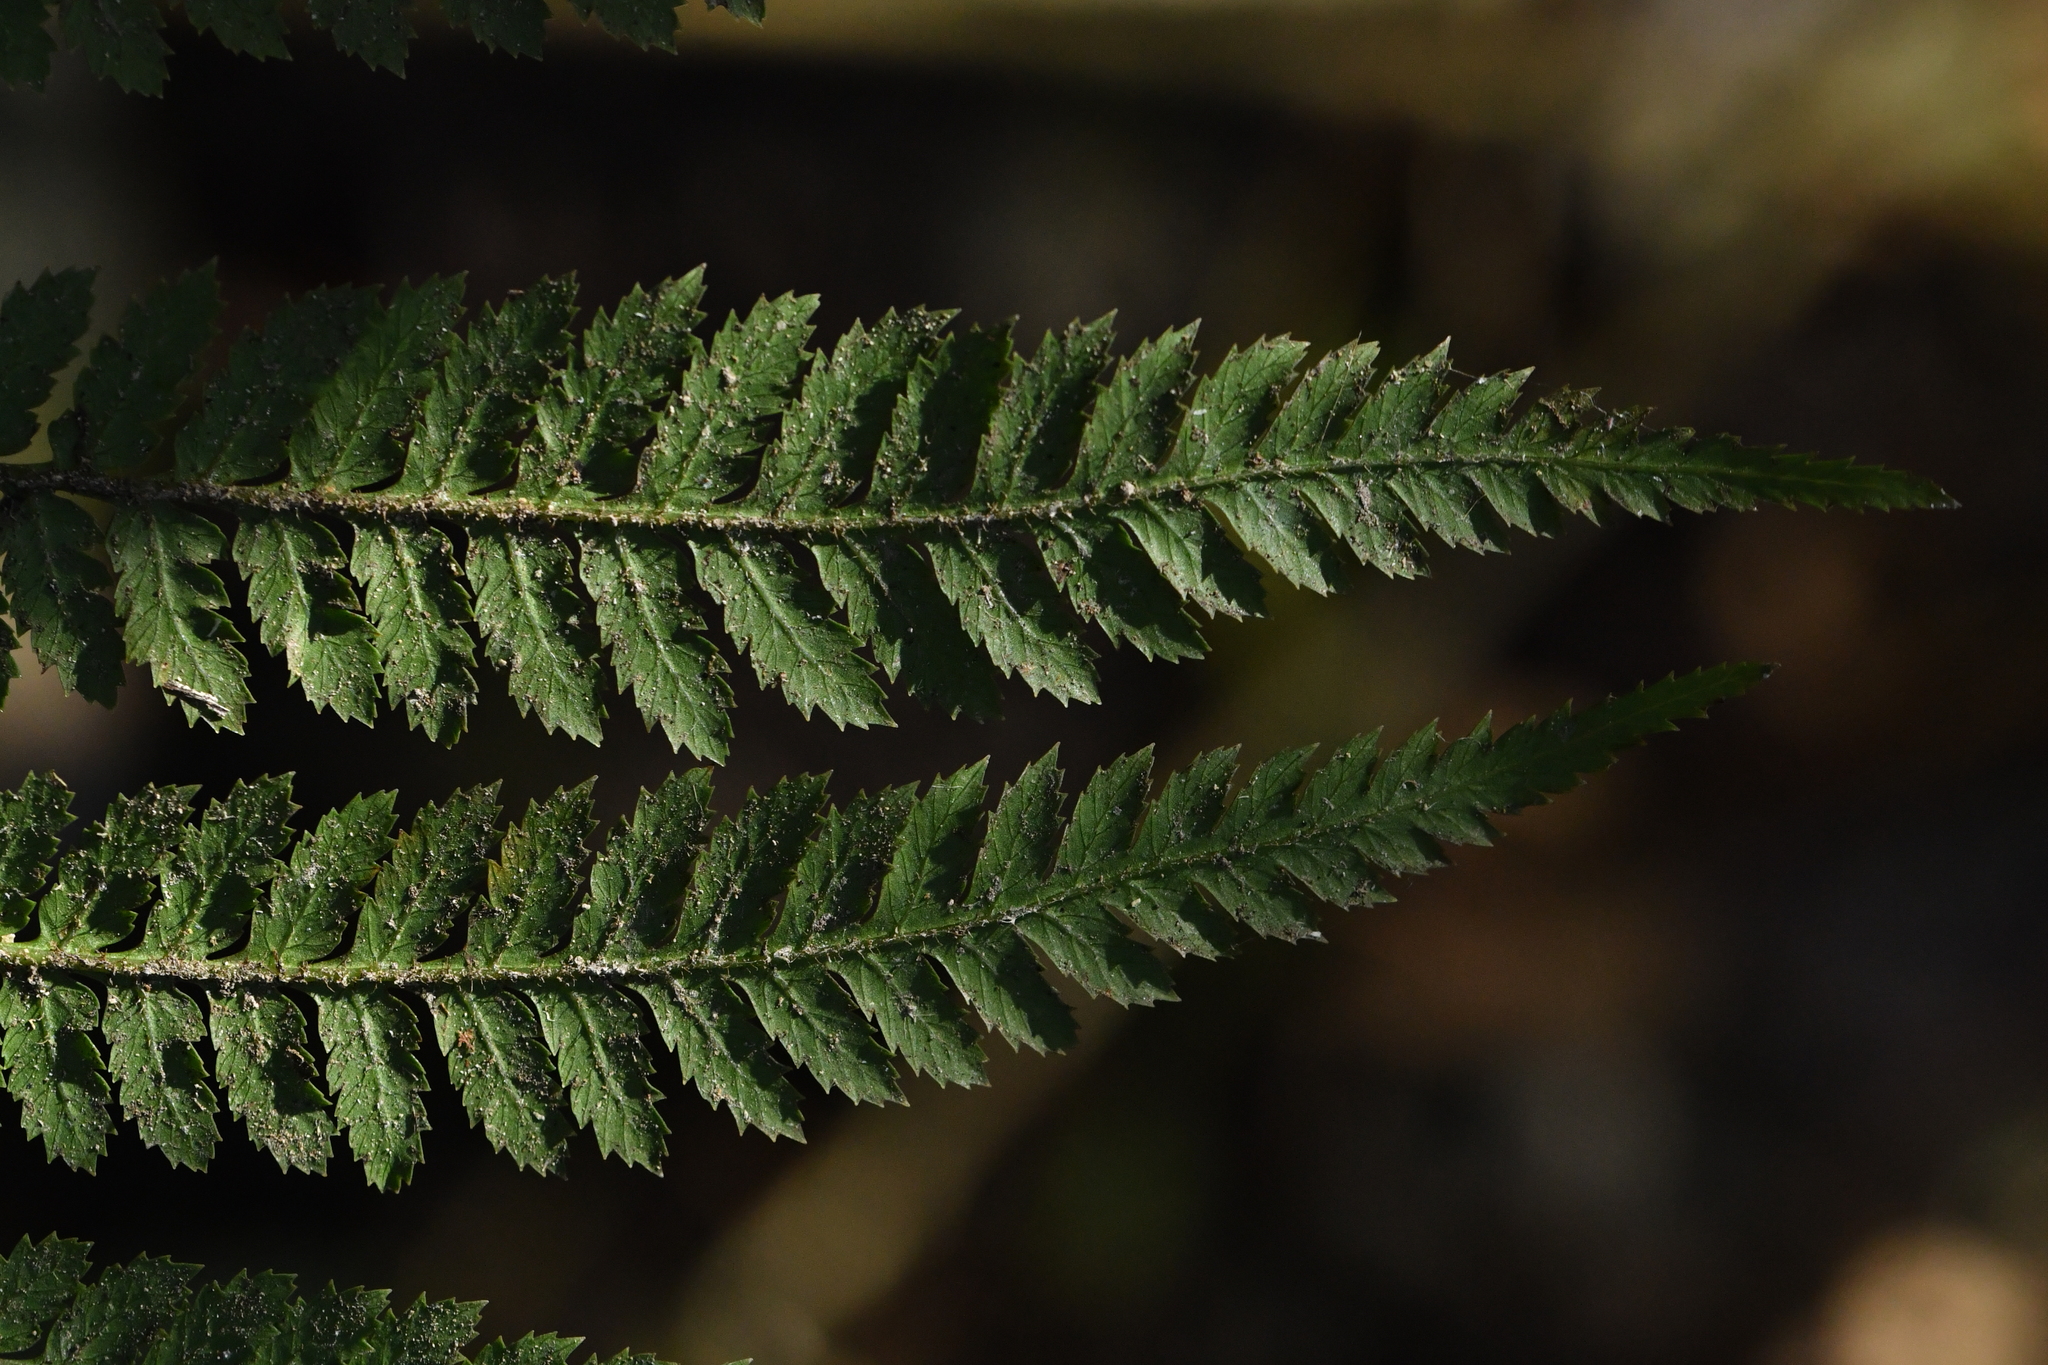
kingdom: Plantae
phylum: Tracheophyta
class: Polypodiopsida
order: Cyatheales
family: Dicksoniaceae
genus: Dicksonia
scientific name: Dicksonia squarrosa
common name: Hard treefern
